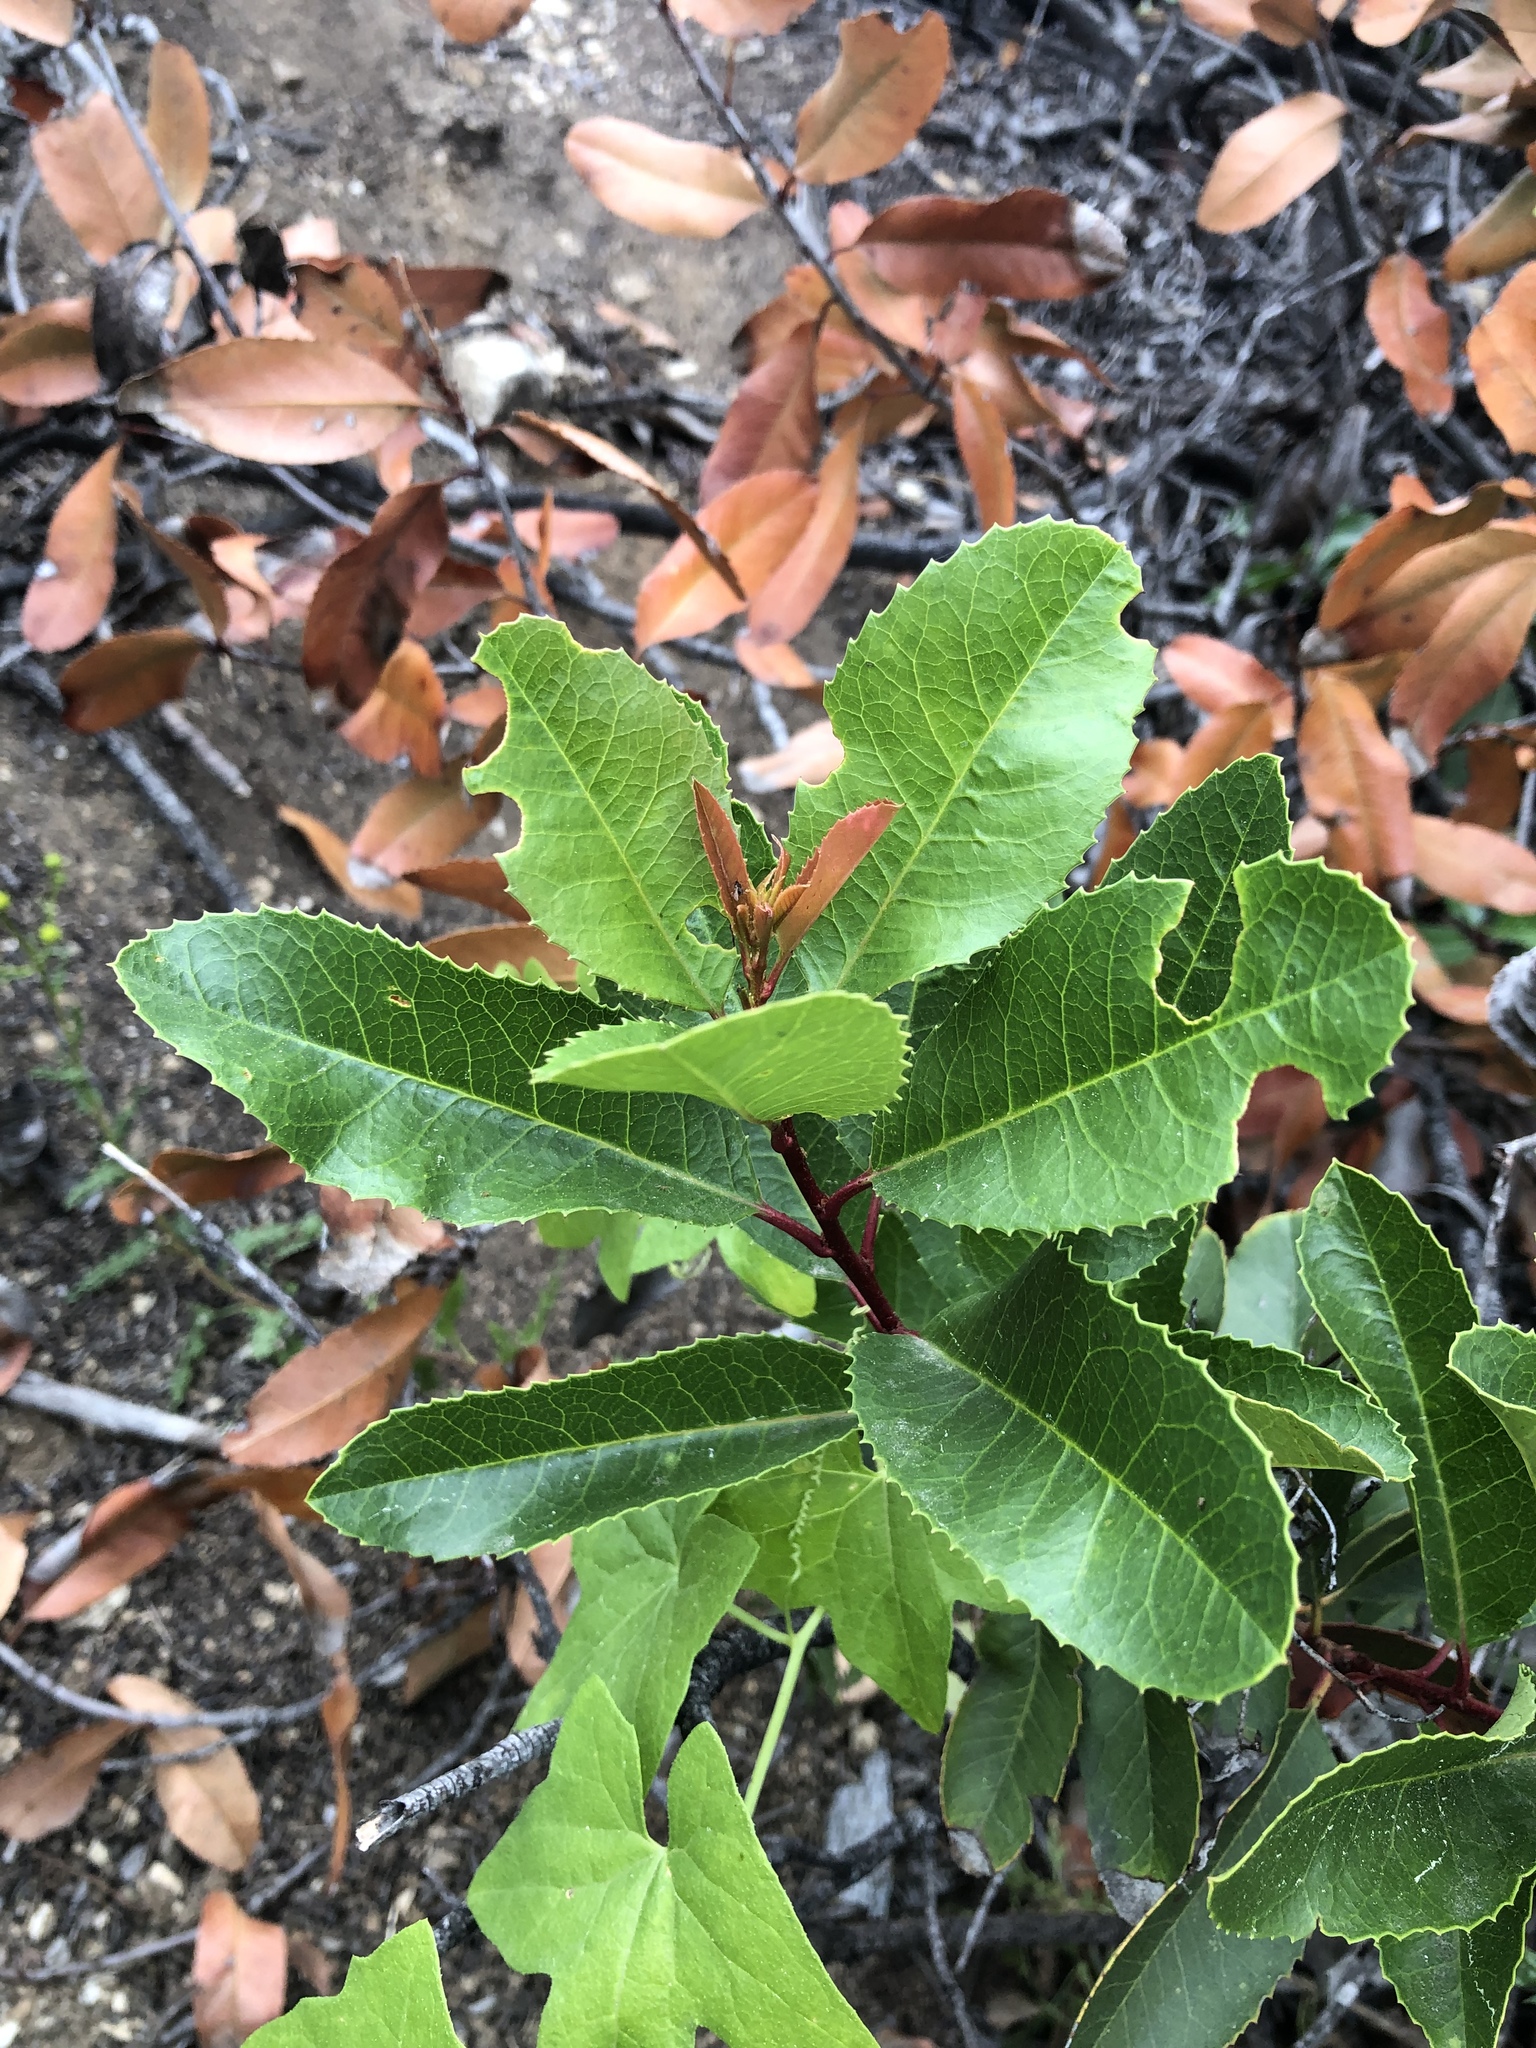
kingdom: Plantae
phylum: Tracheophyta
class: Magnoliopsida
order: Rosales
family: Rosaceae
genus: Heteromeles
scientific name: Heteromeles arbutifolia
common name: California-holly
